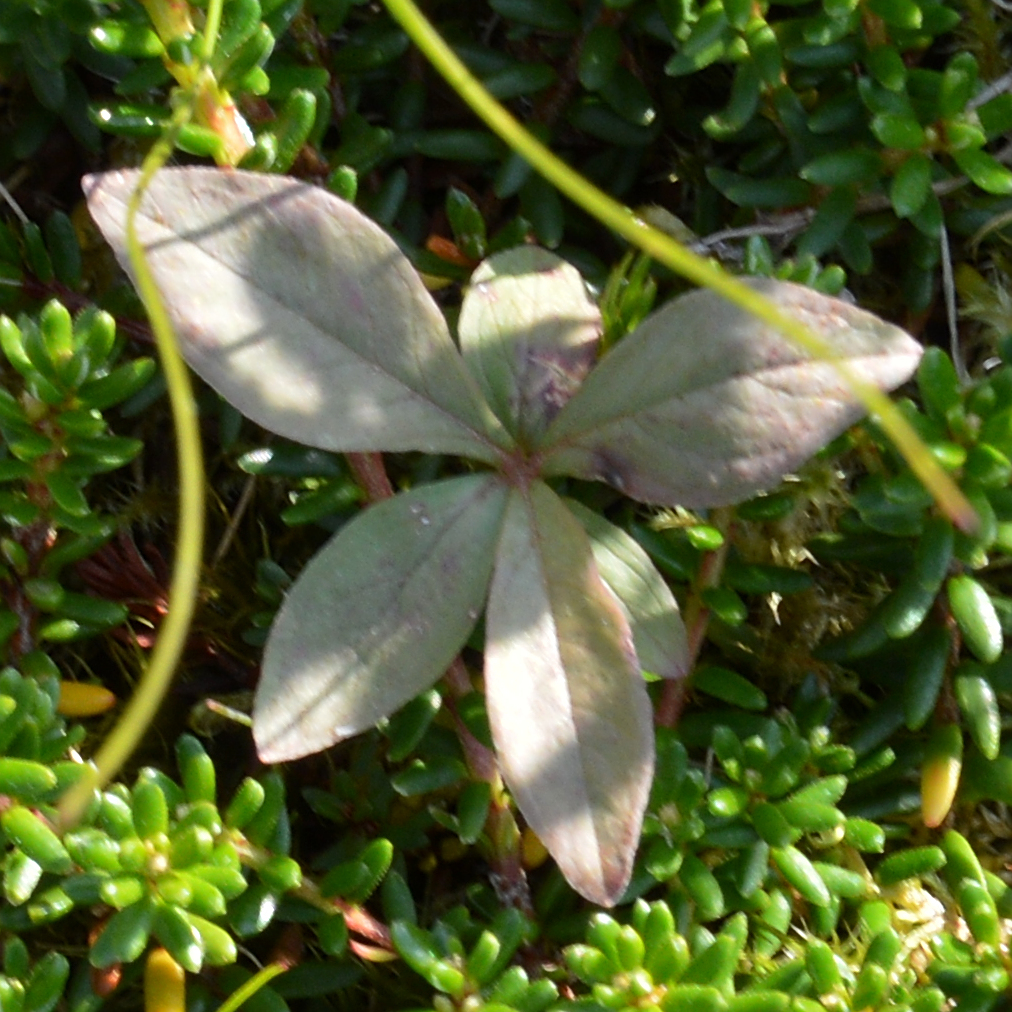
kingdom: Plantae
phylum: Tracheophyta
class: Magnoliopsida
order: Ericales
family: Primulaceae
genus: Lysimachia
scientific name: Lysimachia europaea
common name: Arctic starflower
